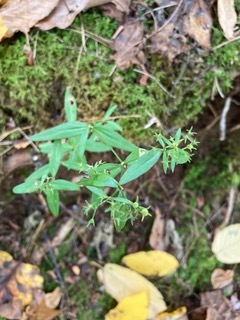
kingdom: Plantae
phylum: Tracheophyta
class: Magnoliopsida
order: Gentianales
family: Rubiaceae
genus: Houstonia
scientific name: Houstonia purpurea
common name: Summer bluet
